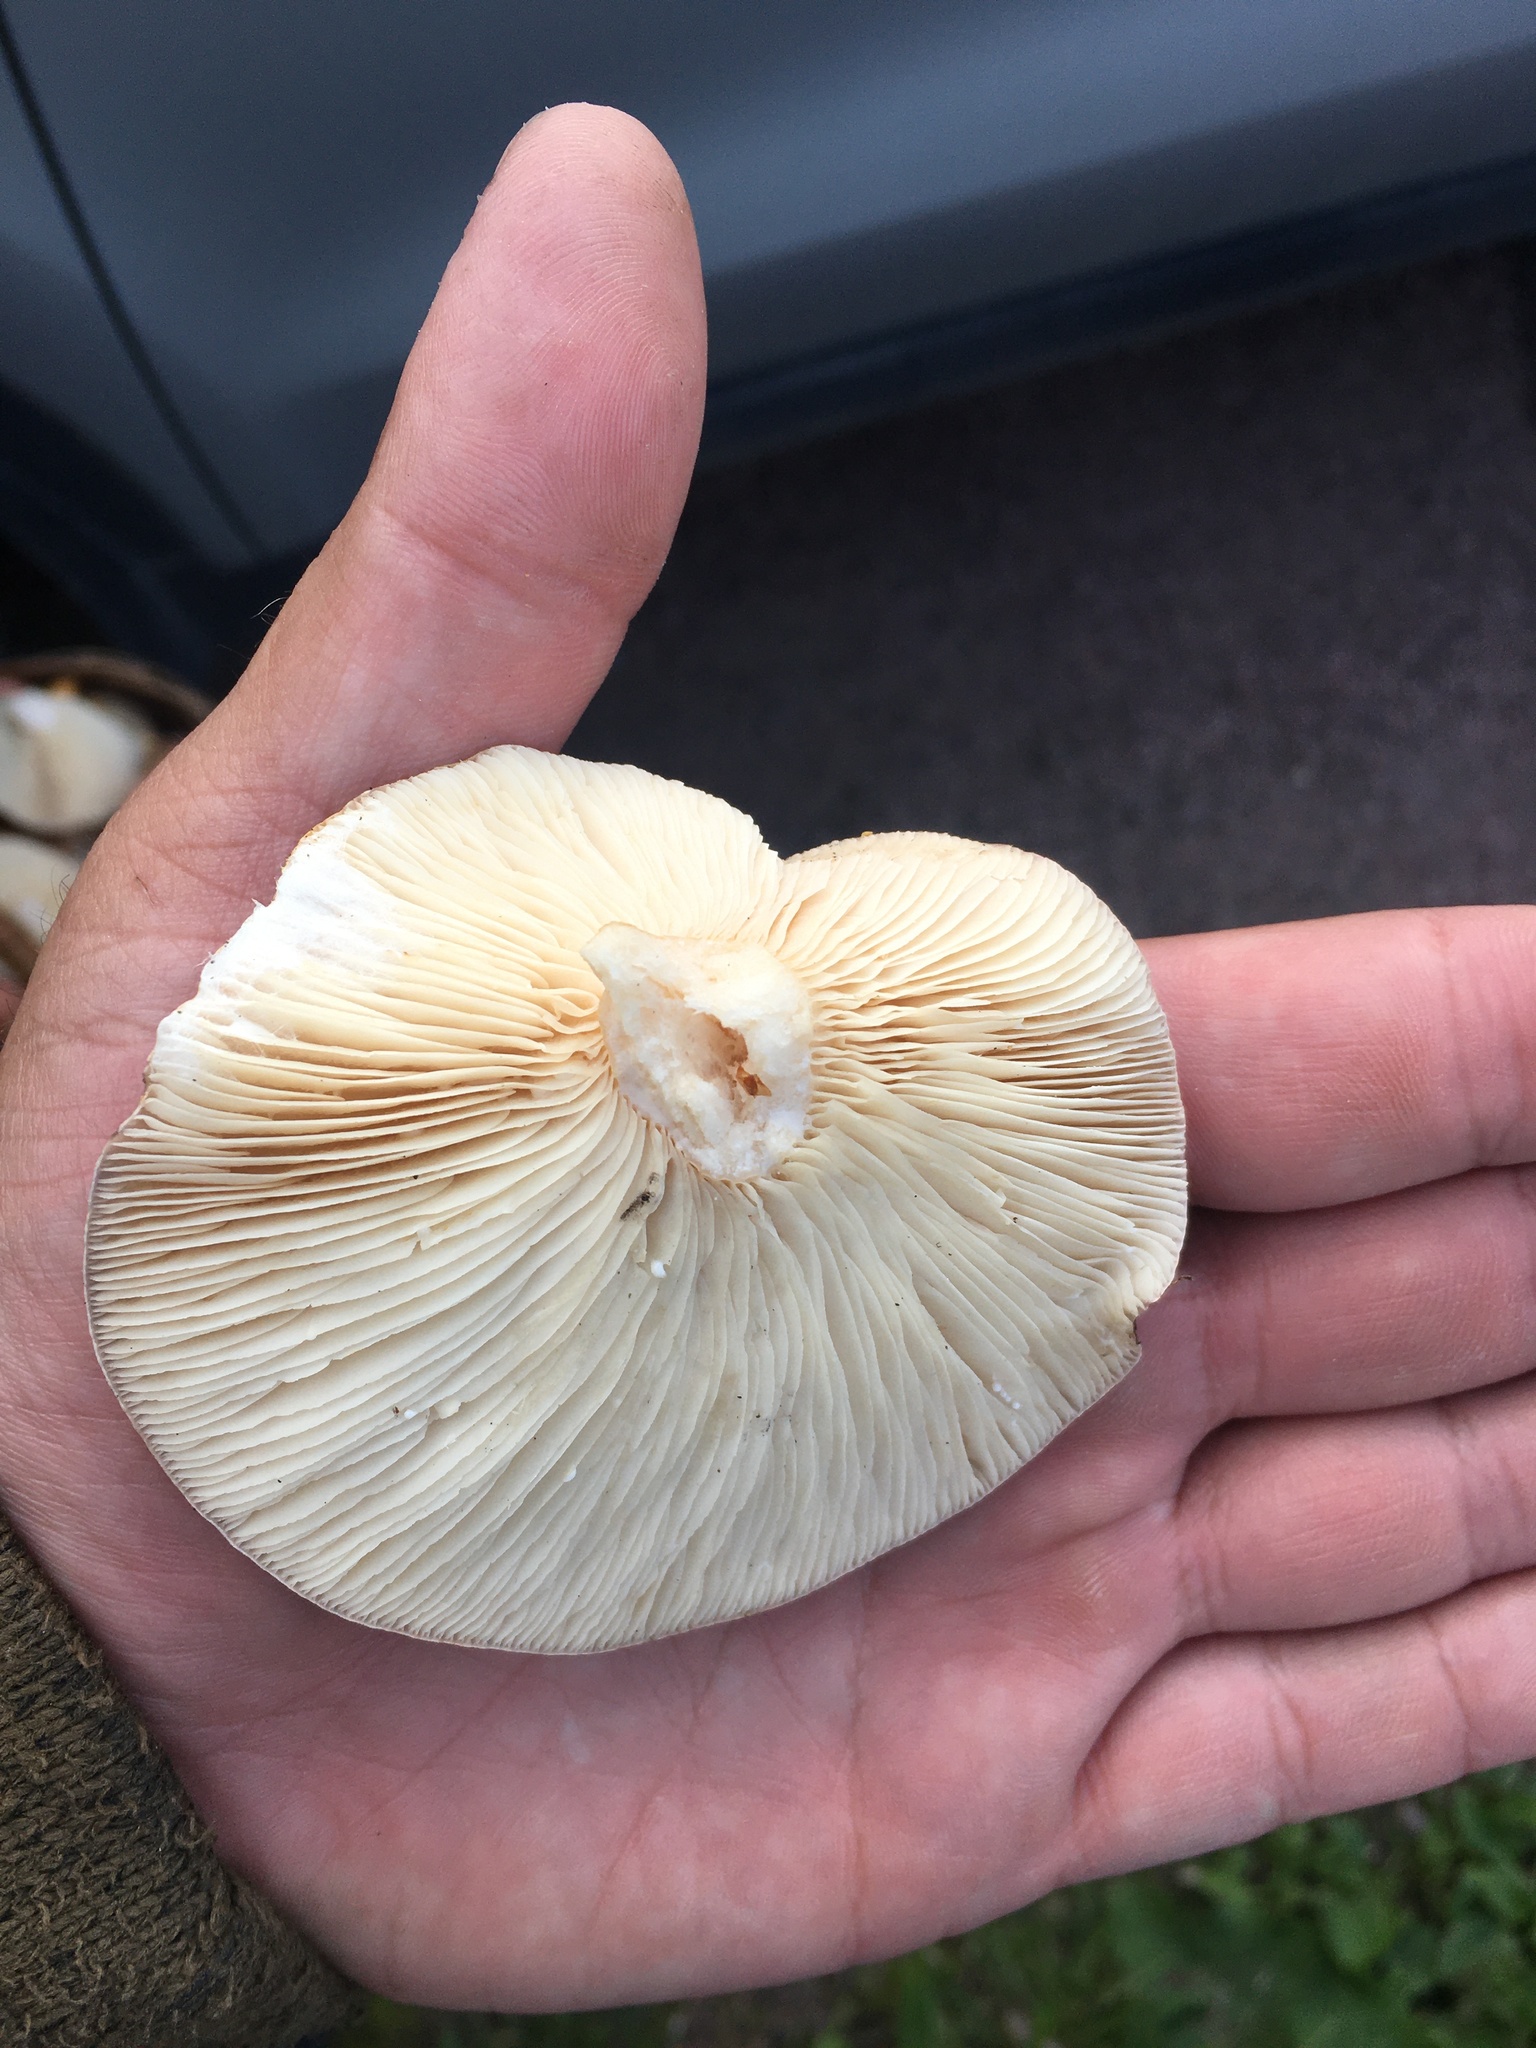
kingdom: Fungi
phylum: Basidiomycota
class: Agaricomycetes
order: Russulales
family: Russulaceae
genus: Lactarius
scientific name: Lactarius flexuosus
